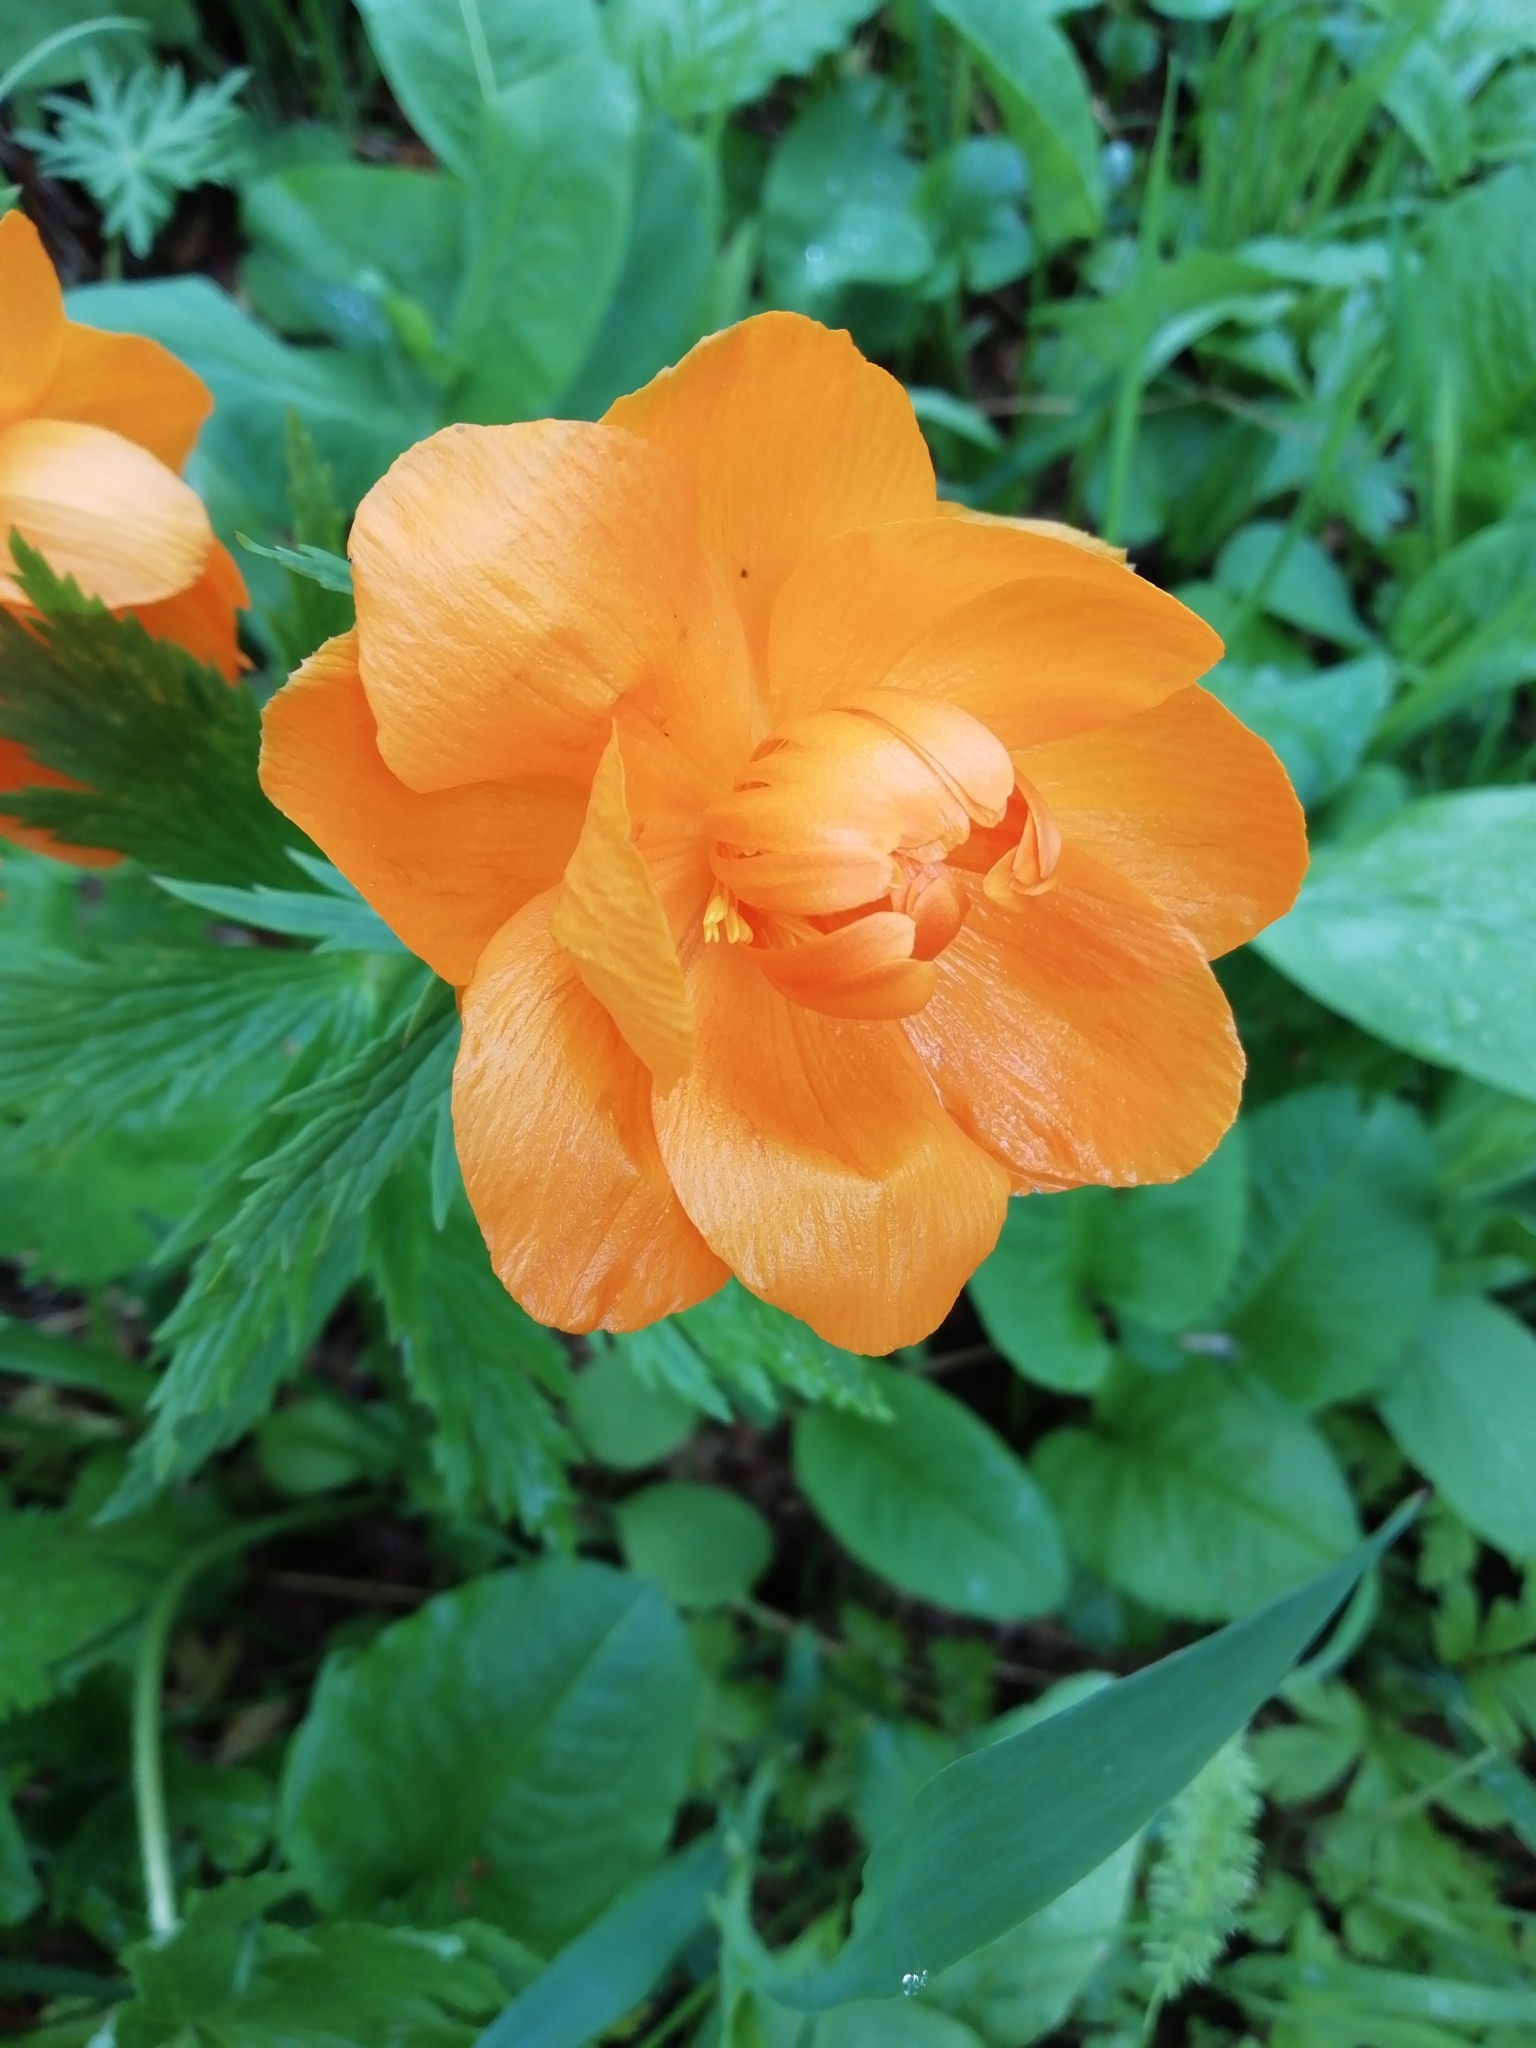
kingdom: Plantae
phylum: Tracheophyta
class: Magnoliopsida
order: Ranunculales
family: Ranunculaceae
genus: Trollius
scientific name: Trollius asiaticus
